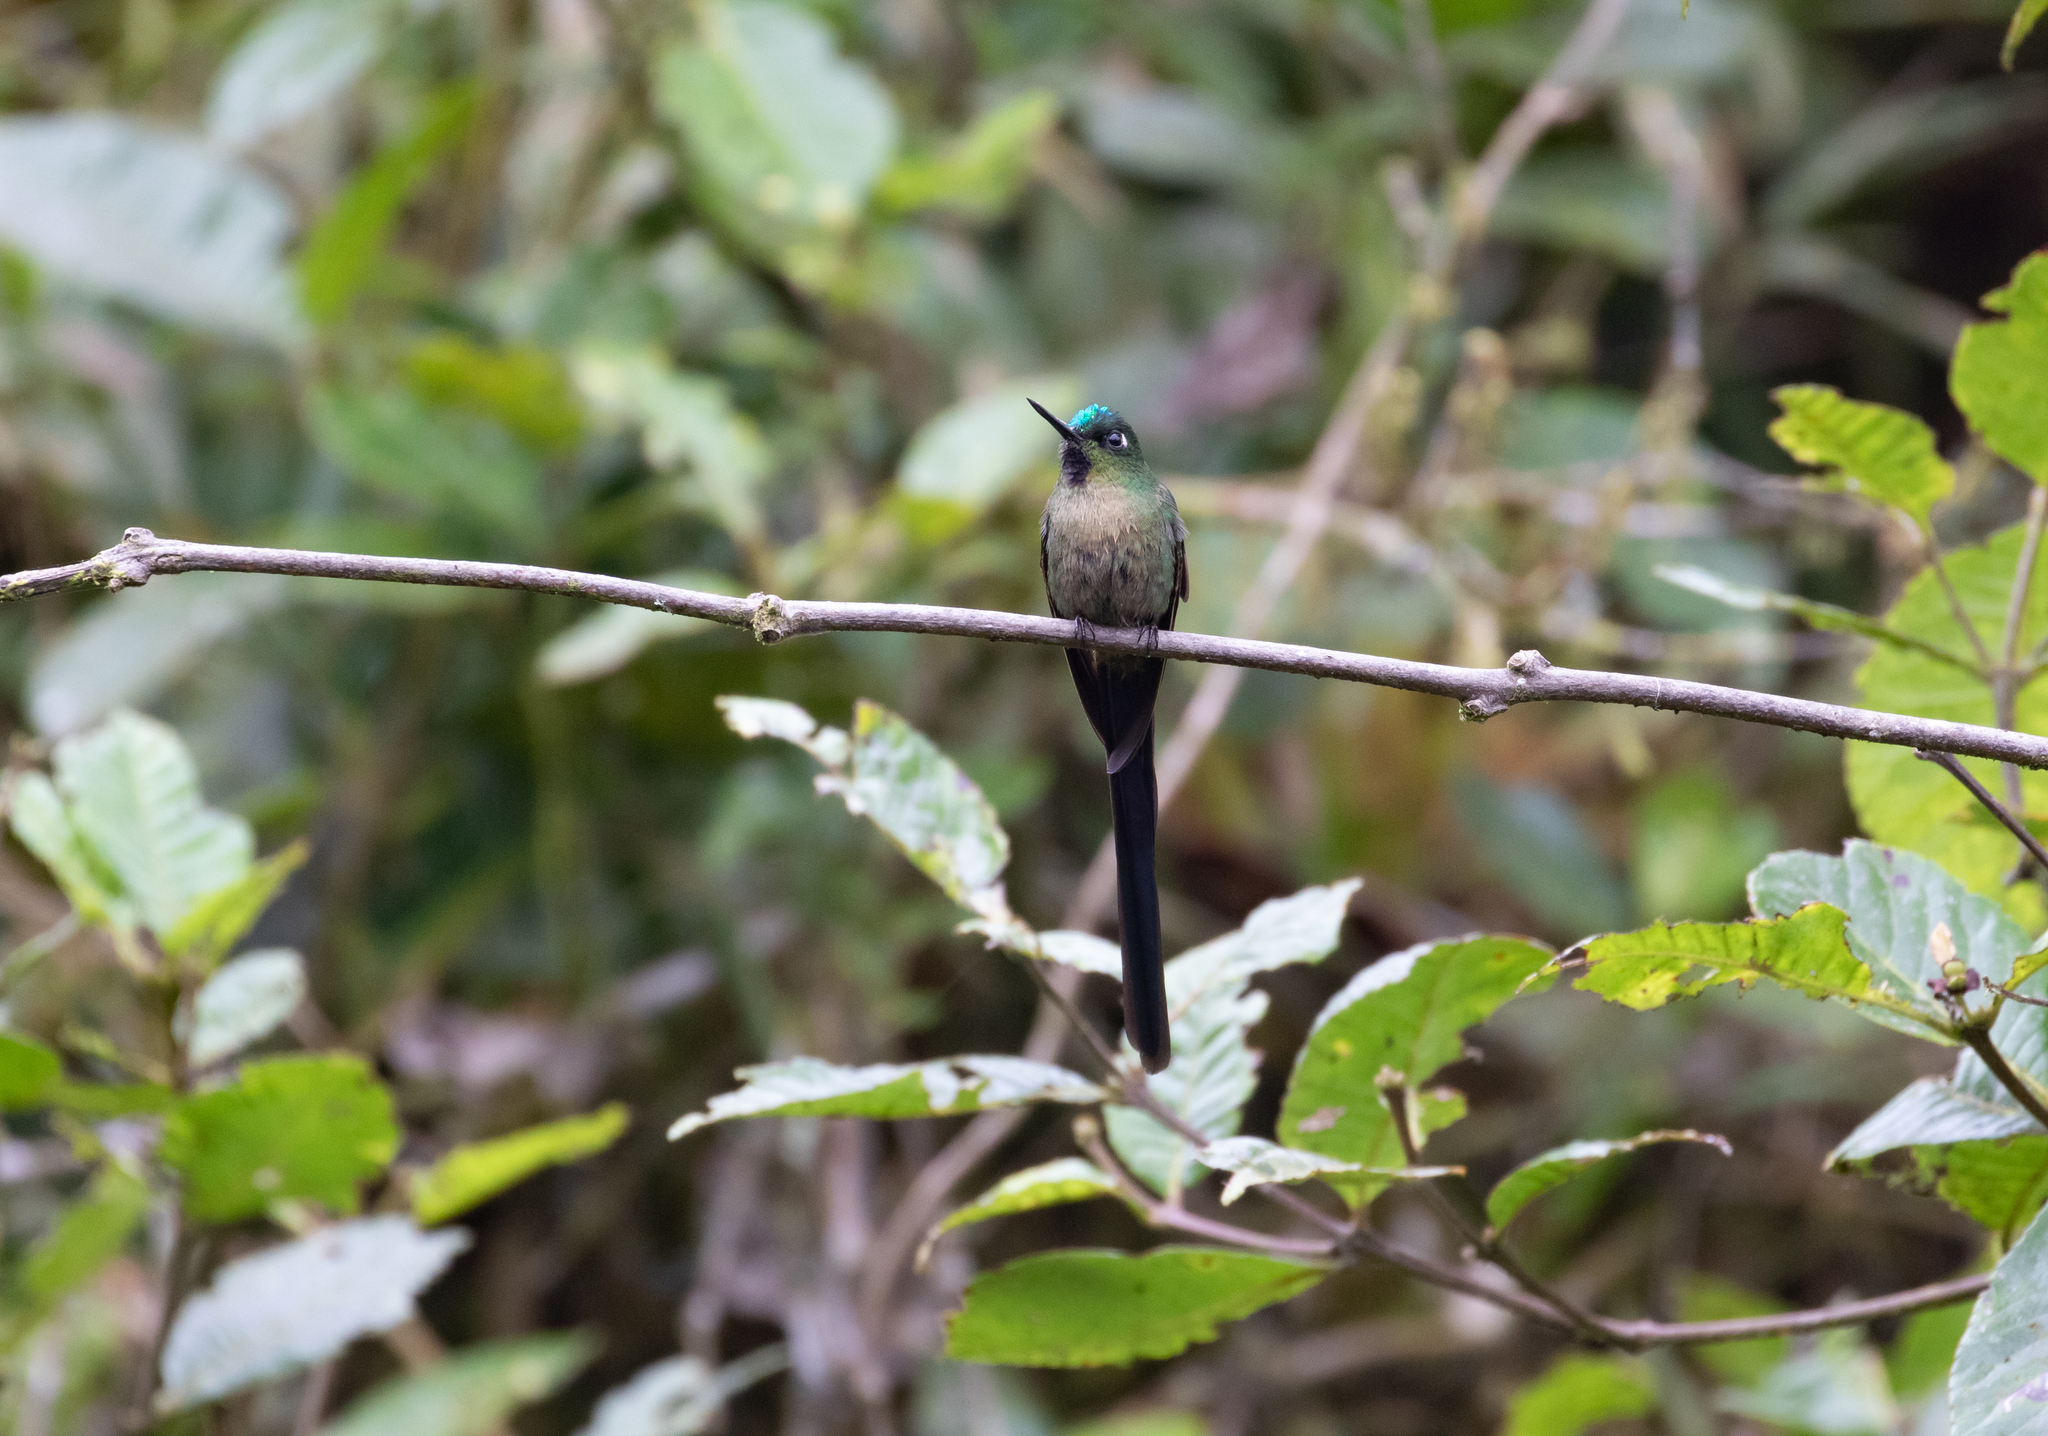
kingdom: Animalia
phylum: Chordata
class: Aves
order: Apodiformes
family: Trochilidae
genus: Aglaiocercus
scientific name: Aglaiocercus coelestis
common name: Violet-tailed sylph
